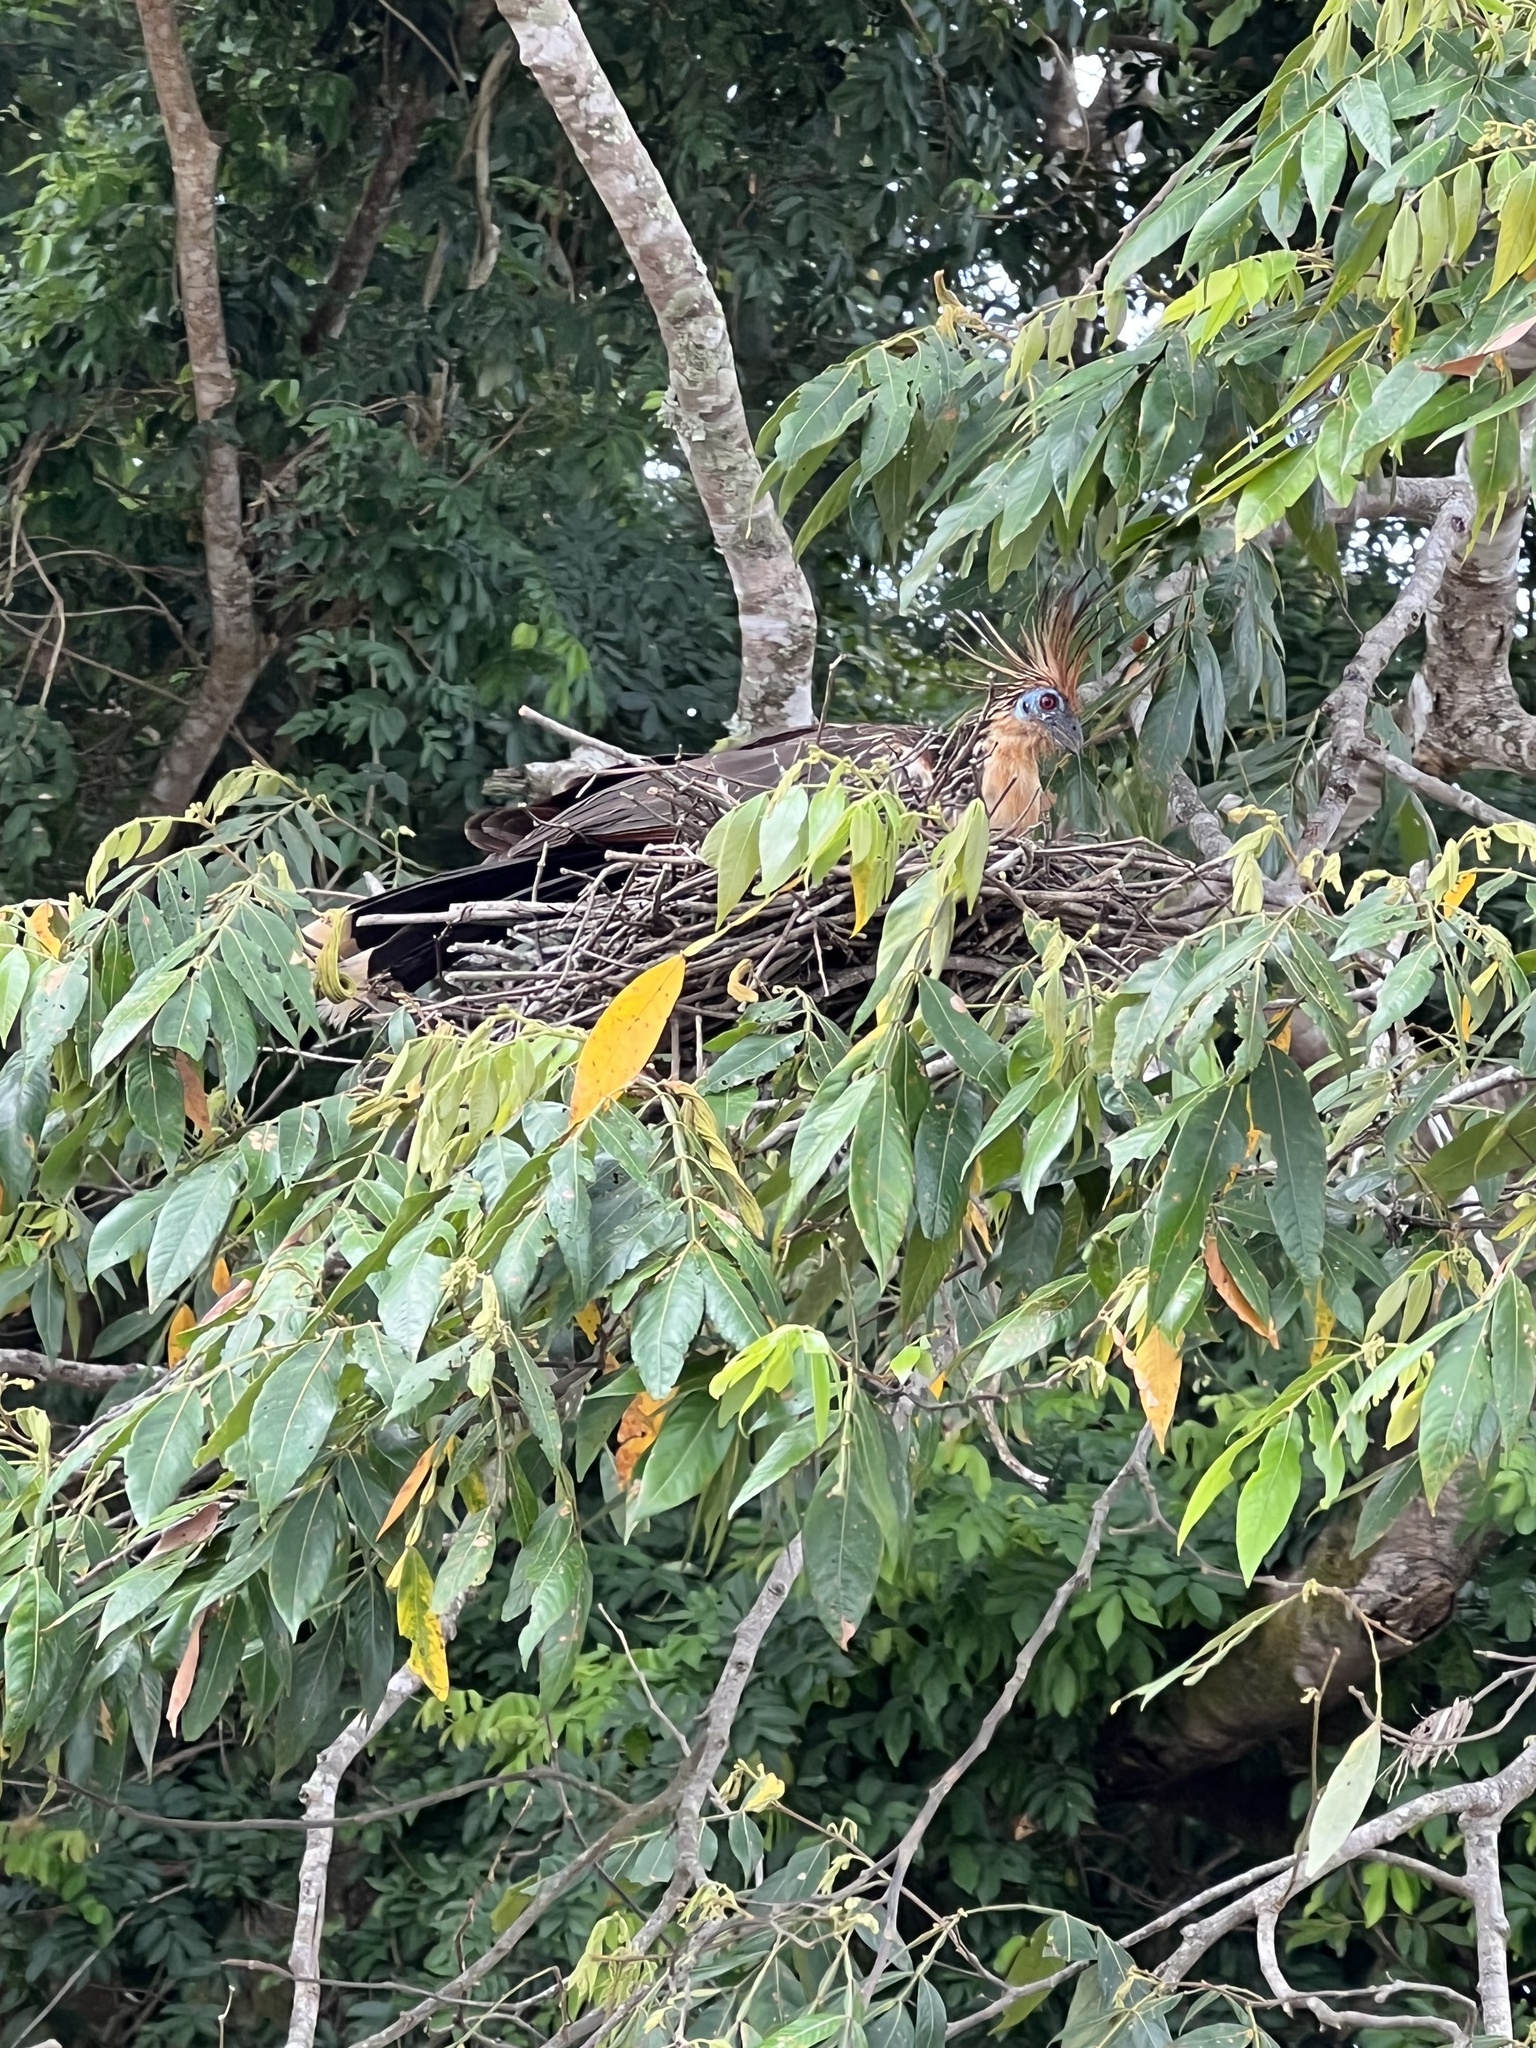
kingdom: Animalia
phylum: Chordata
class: Aves
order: Opisthocomiformes
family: Opisthocomidae
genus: Opisthocomus
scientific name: Opisthocomus hoazin
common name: Hoatzin
